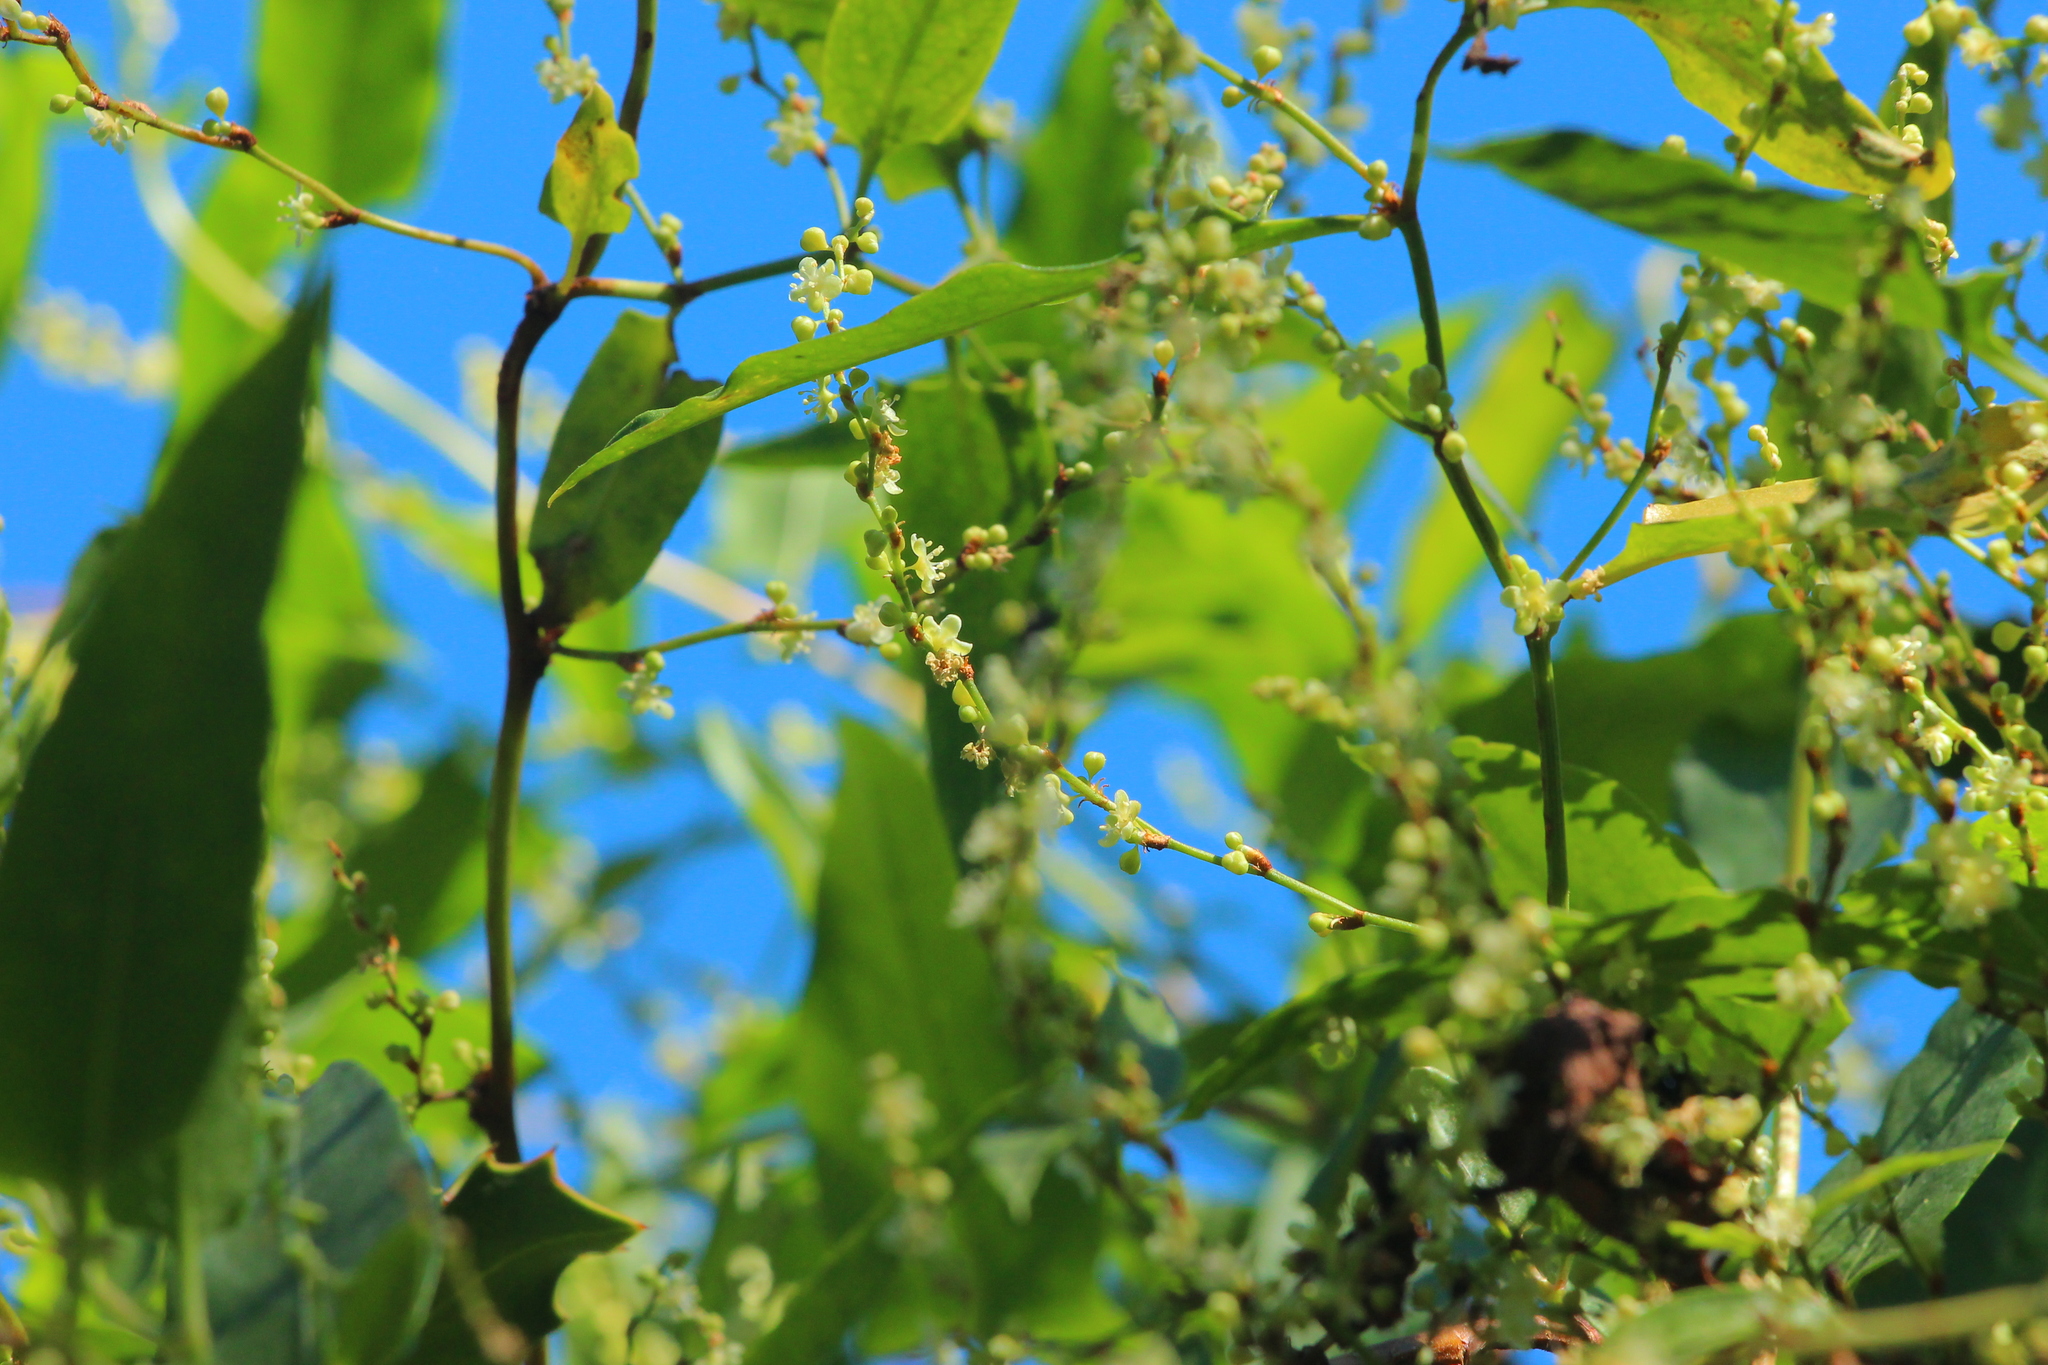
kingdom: Plantae
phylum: Tracheophyta
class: Magnoliopsida
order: Caryophyllales
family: Polygonaceae
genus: Muehlenbeckia
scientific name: Muehlenbeckia sagittifolia
